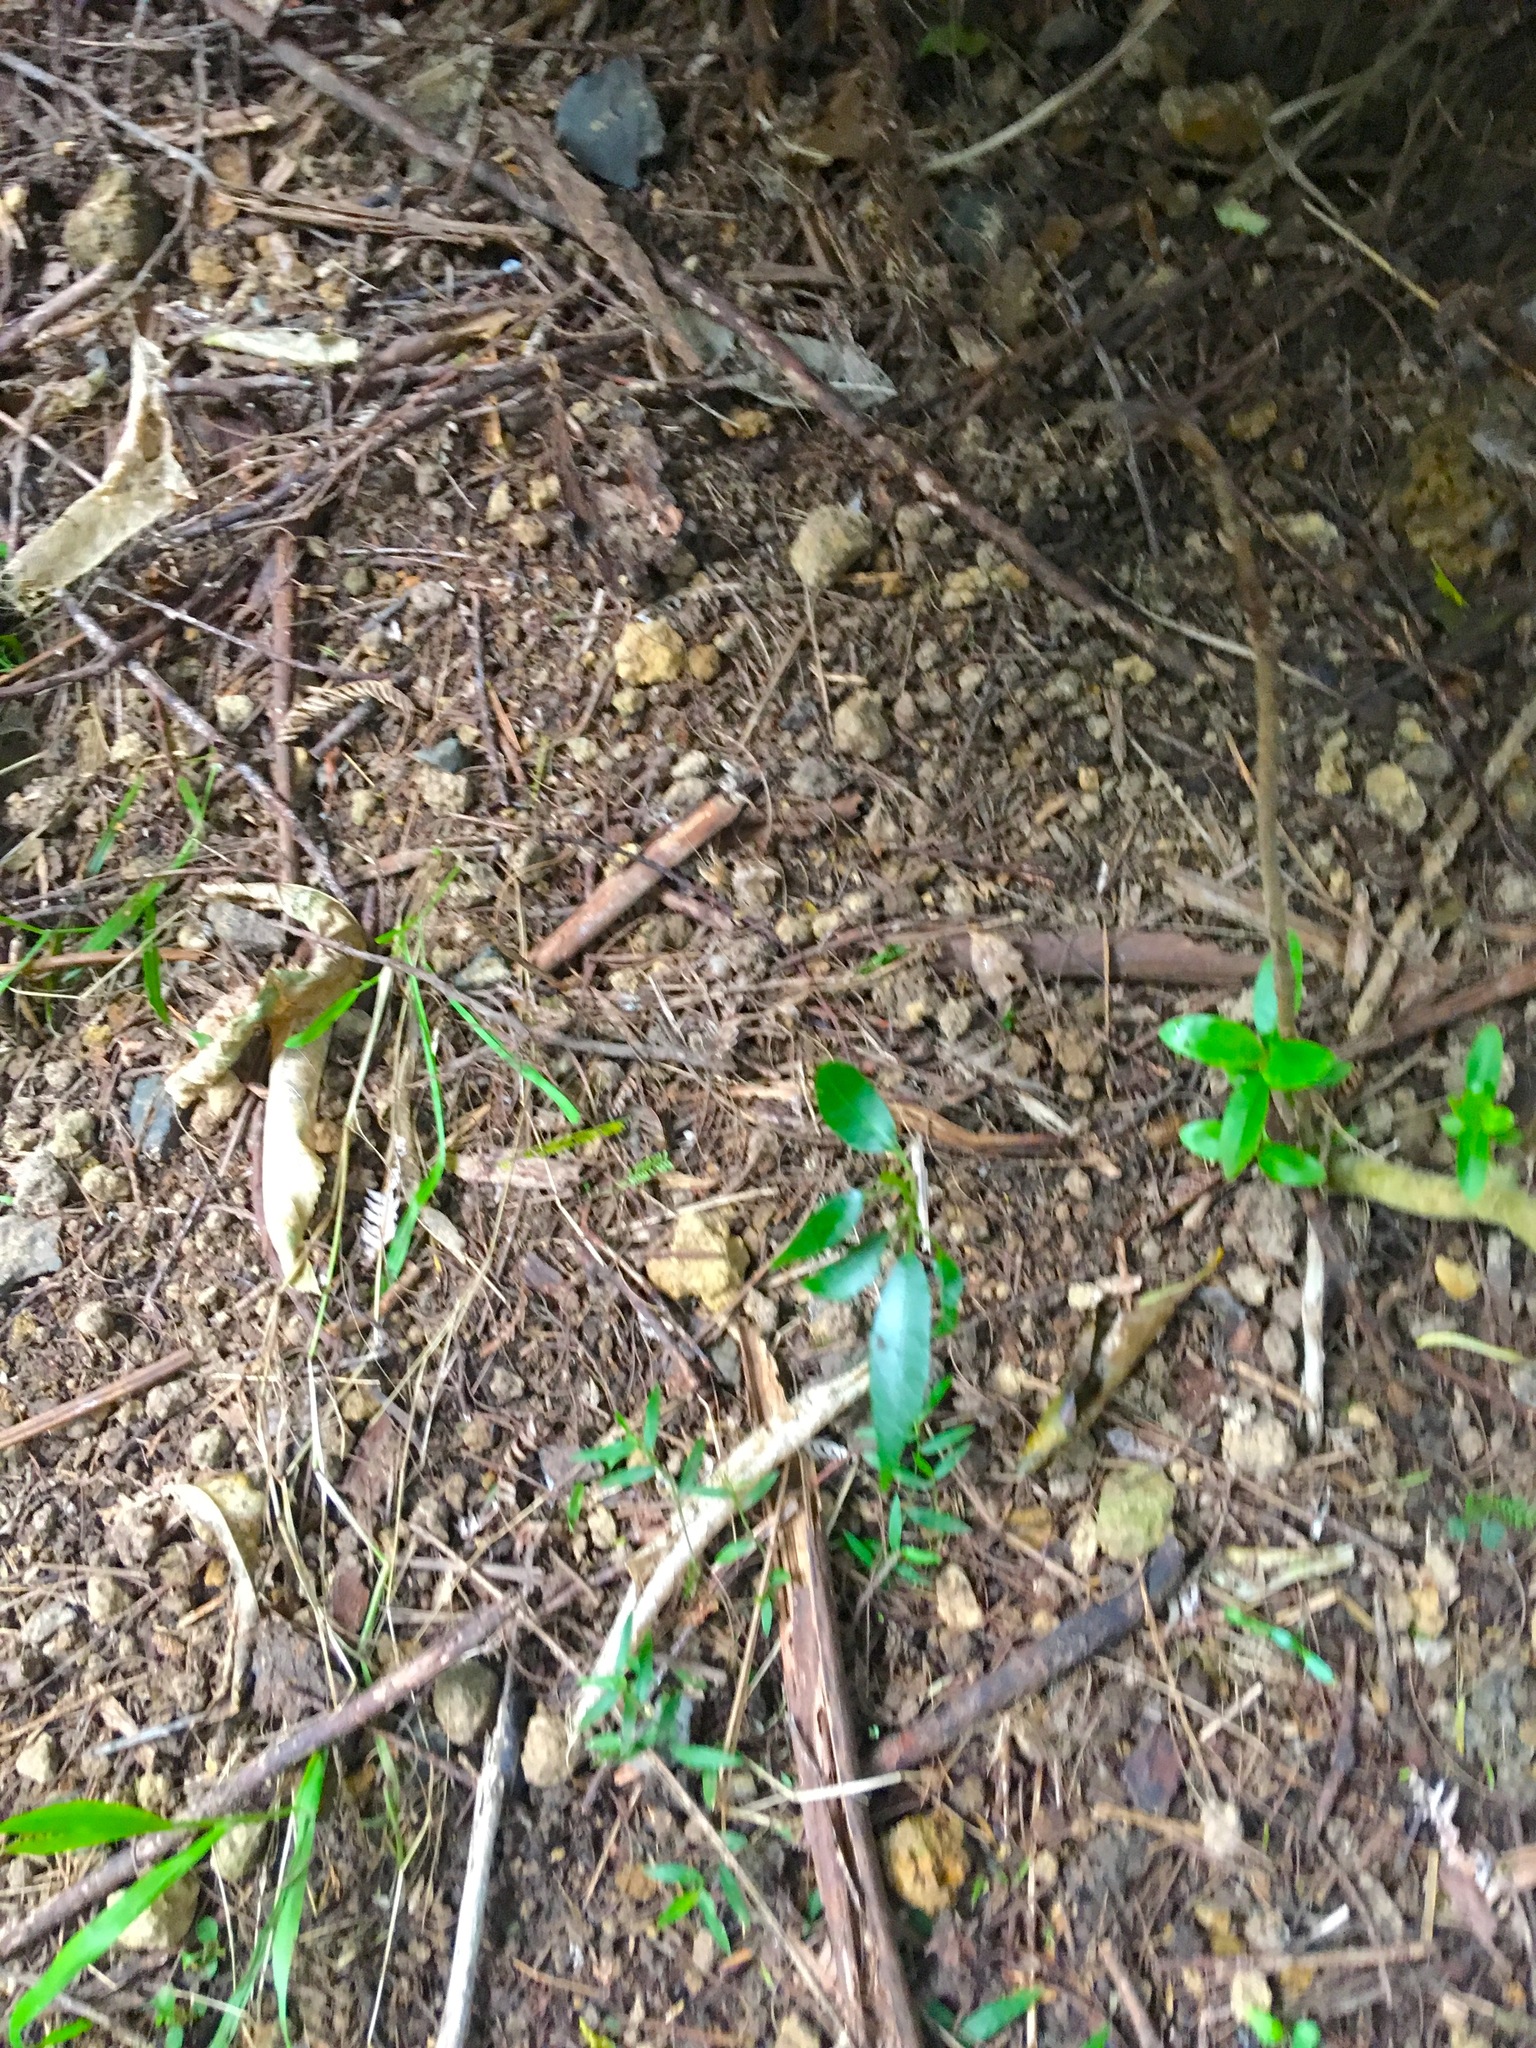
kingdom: Plantae
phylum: Tracheophyta
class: Magnoliopsida
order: Malpighiales
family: Passifloraceae
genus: Passiflora
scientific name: Passiflora tetrandra
